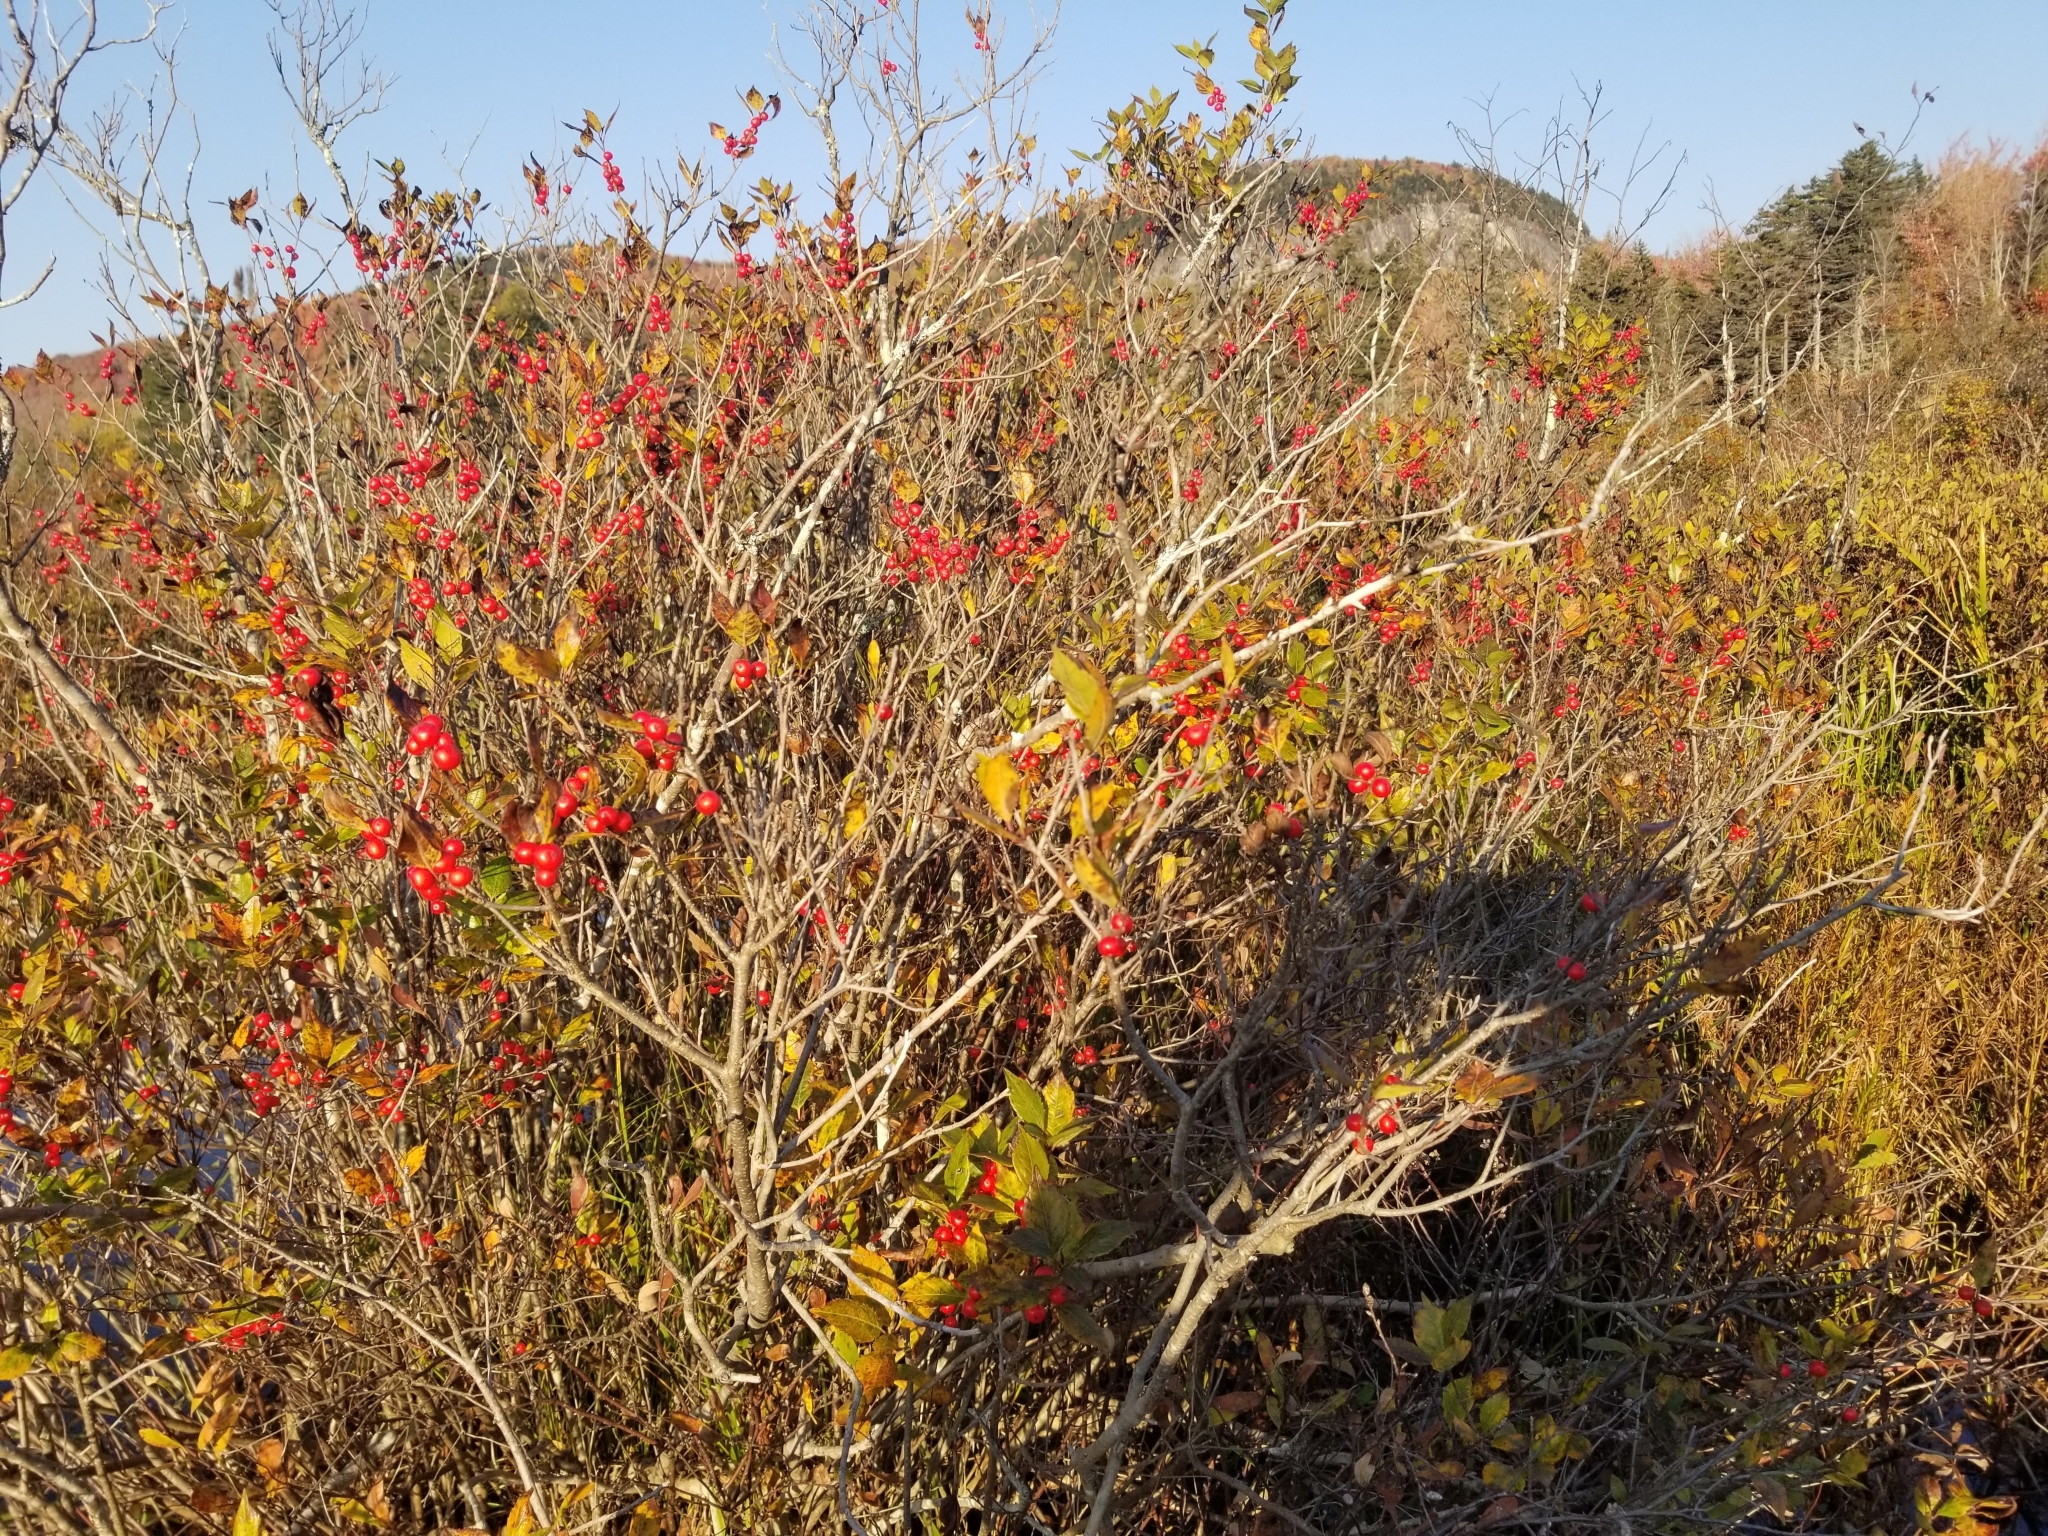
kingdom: Plantae
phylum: Tracheophyta
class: Magnoliopsida
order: Aquifoliales
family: Aquifoliaceae
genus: Ilex
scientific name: Ilex verticillata
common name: Virginia winterberry
